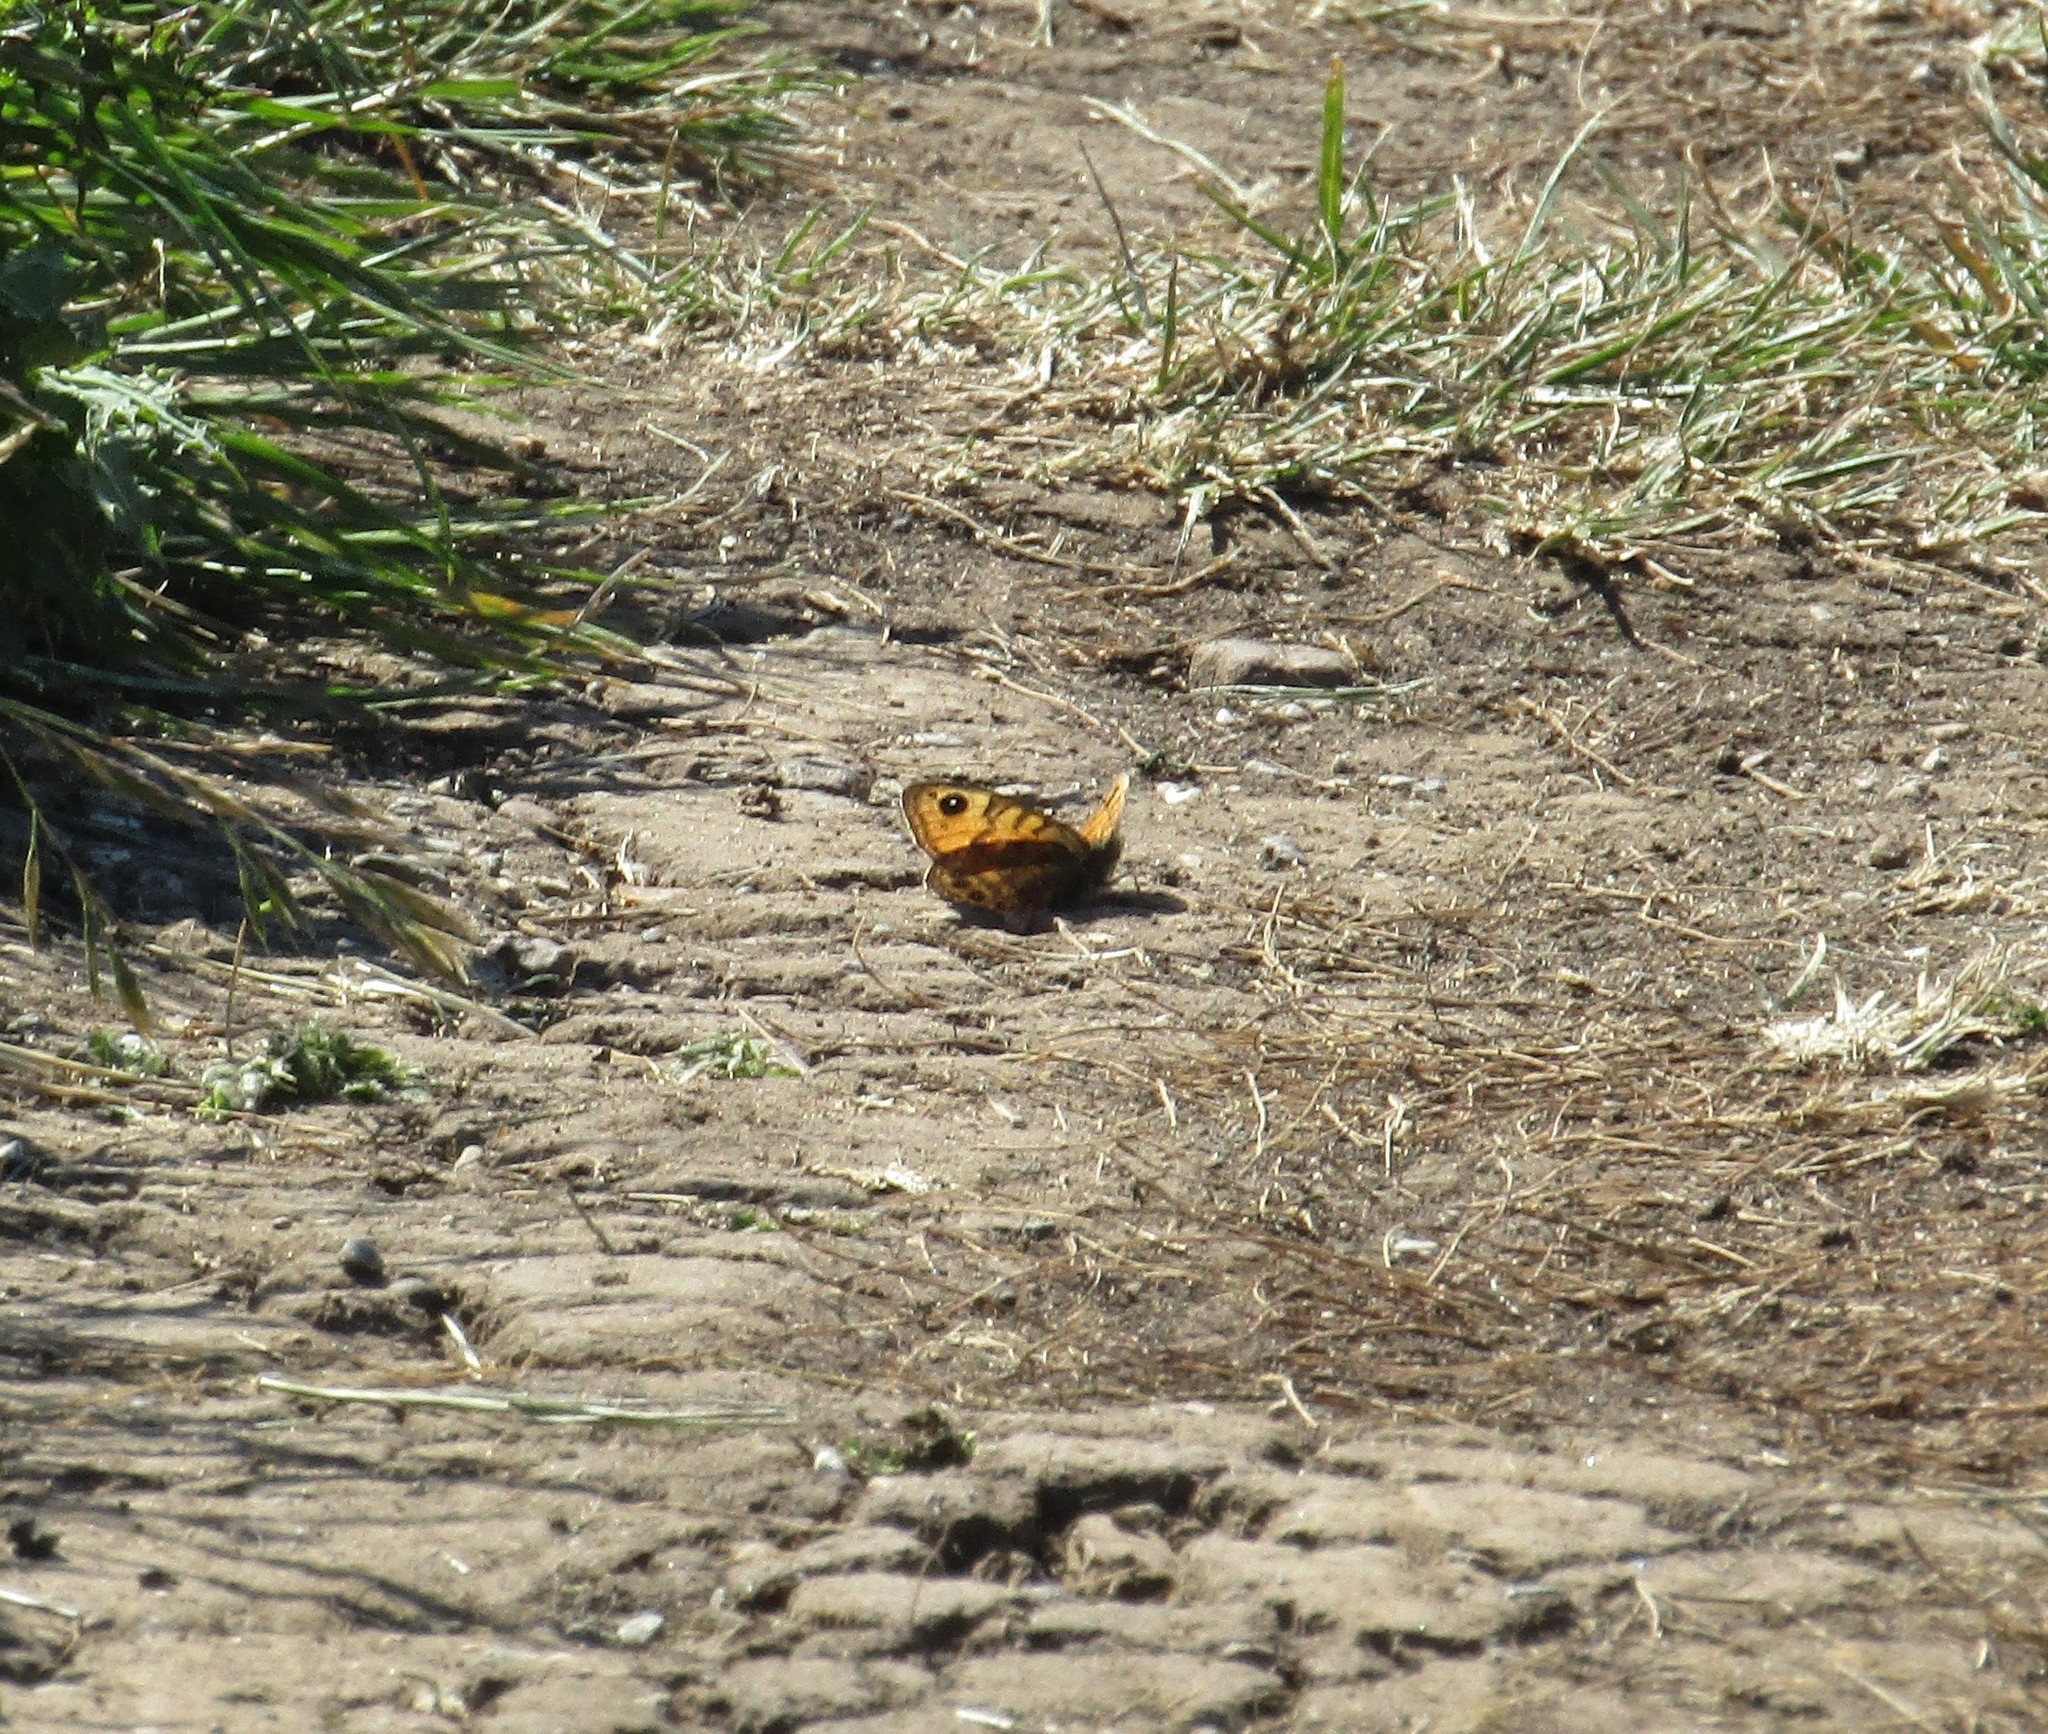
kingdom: Animalia
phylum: Arthropoda
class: Insecta
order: Lepidoptera
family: Nymphalidae
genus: Pararge
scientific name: Pararge Lasiommata megera
